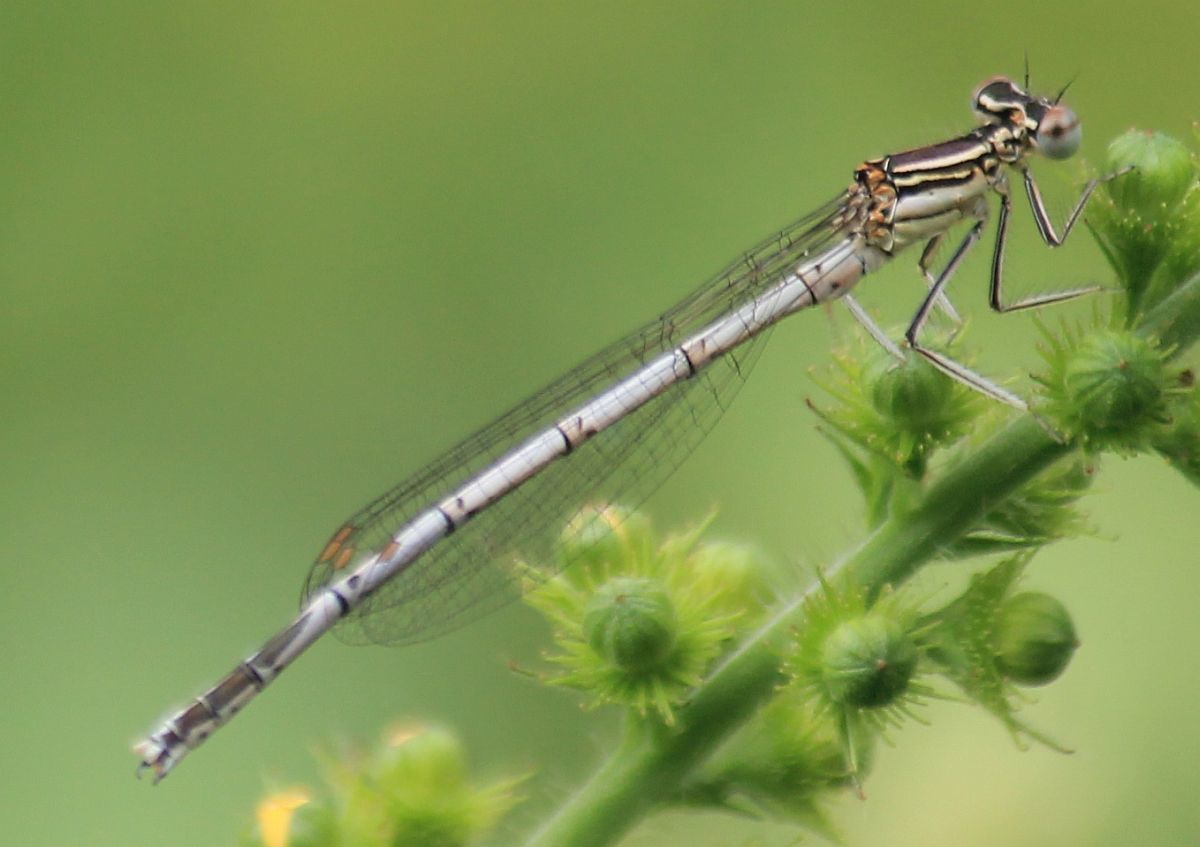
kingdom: Animalia
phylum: Arthropoda
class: Insecta
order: Odonata
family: Platycnemididae
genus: Platycnemis
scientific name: Platycnemis pennipes
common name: White-legged damselfly
